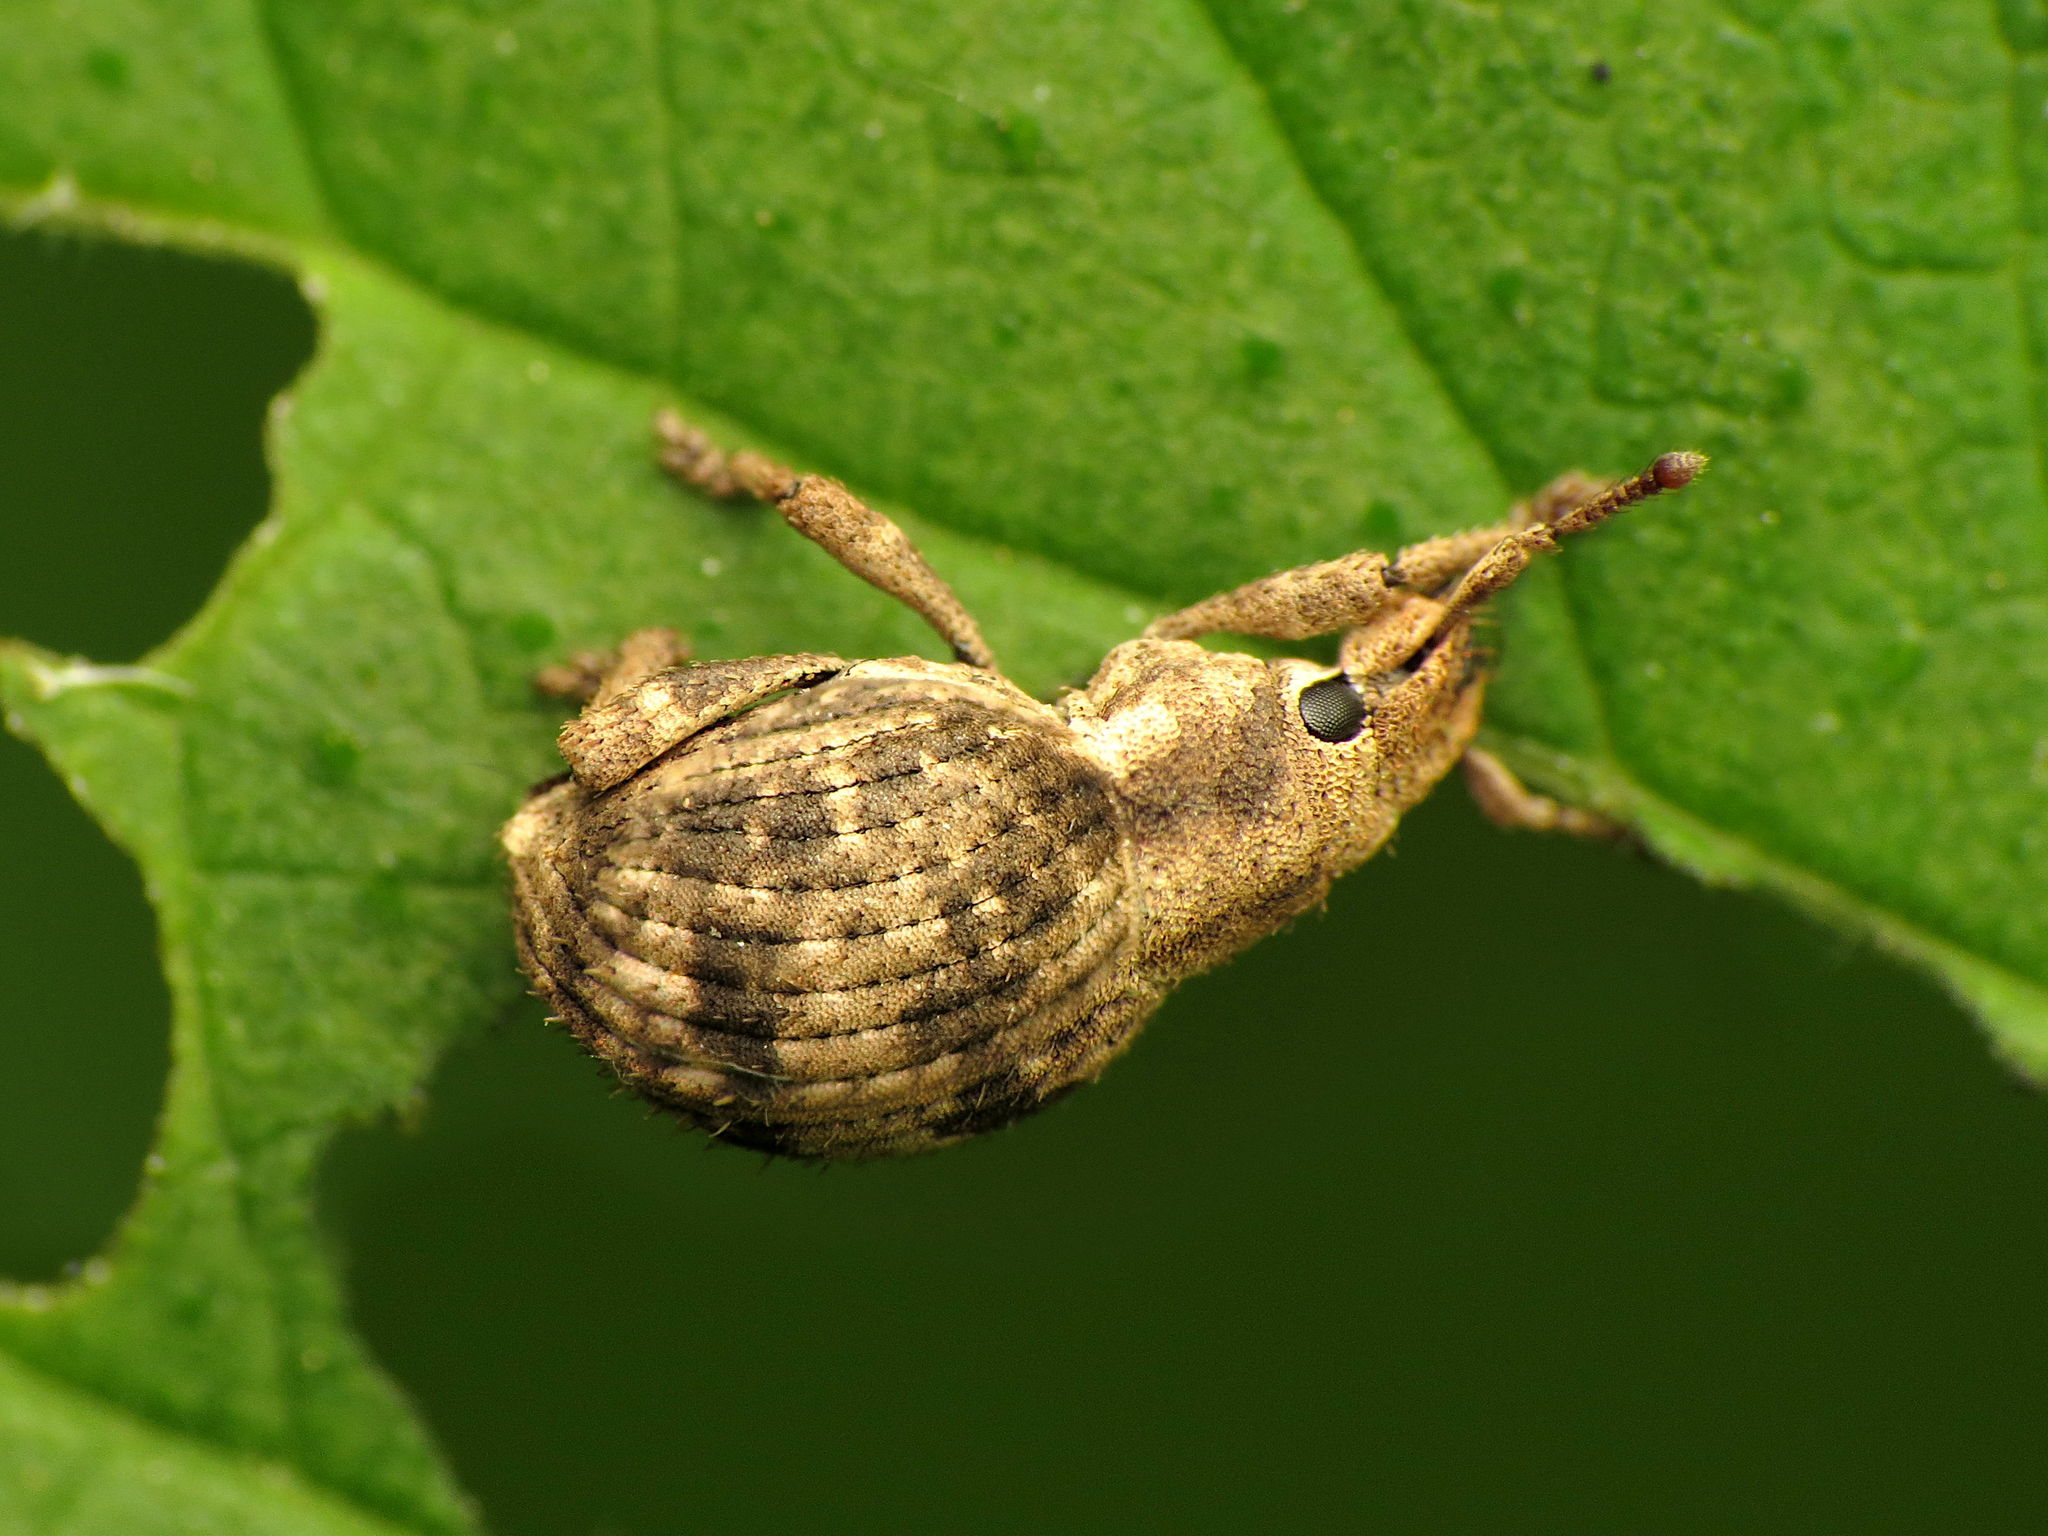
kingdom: Animalia
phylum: Arthropoda
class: Insecta
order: Coleoptera
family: Curculionidae
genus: Pseudocneorhinus
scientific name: Pseudocneorhinus bifasciatus
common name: Two-banded japanese weevil
